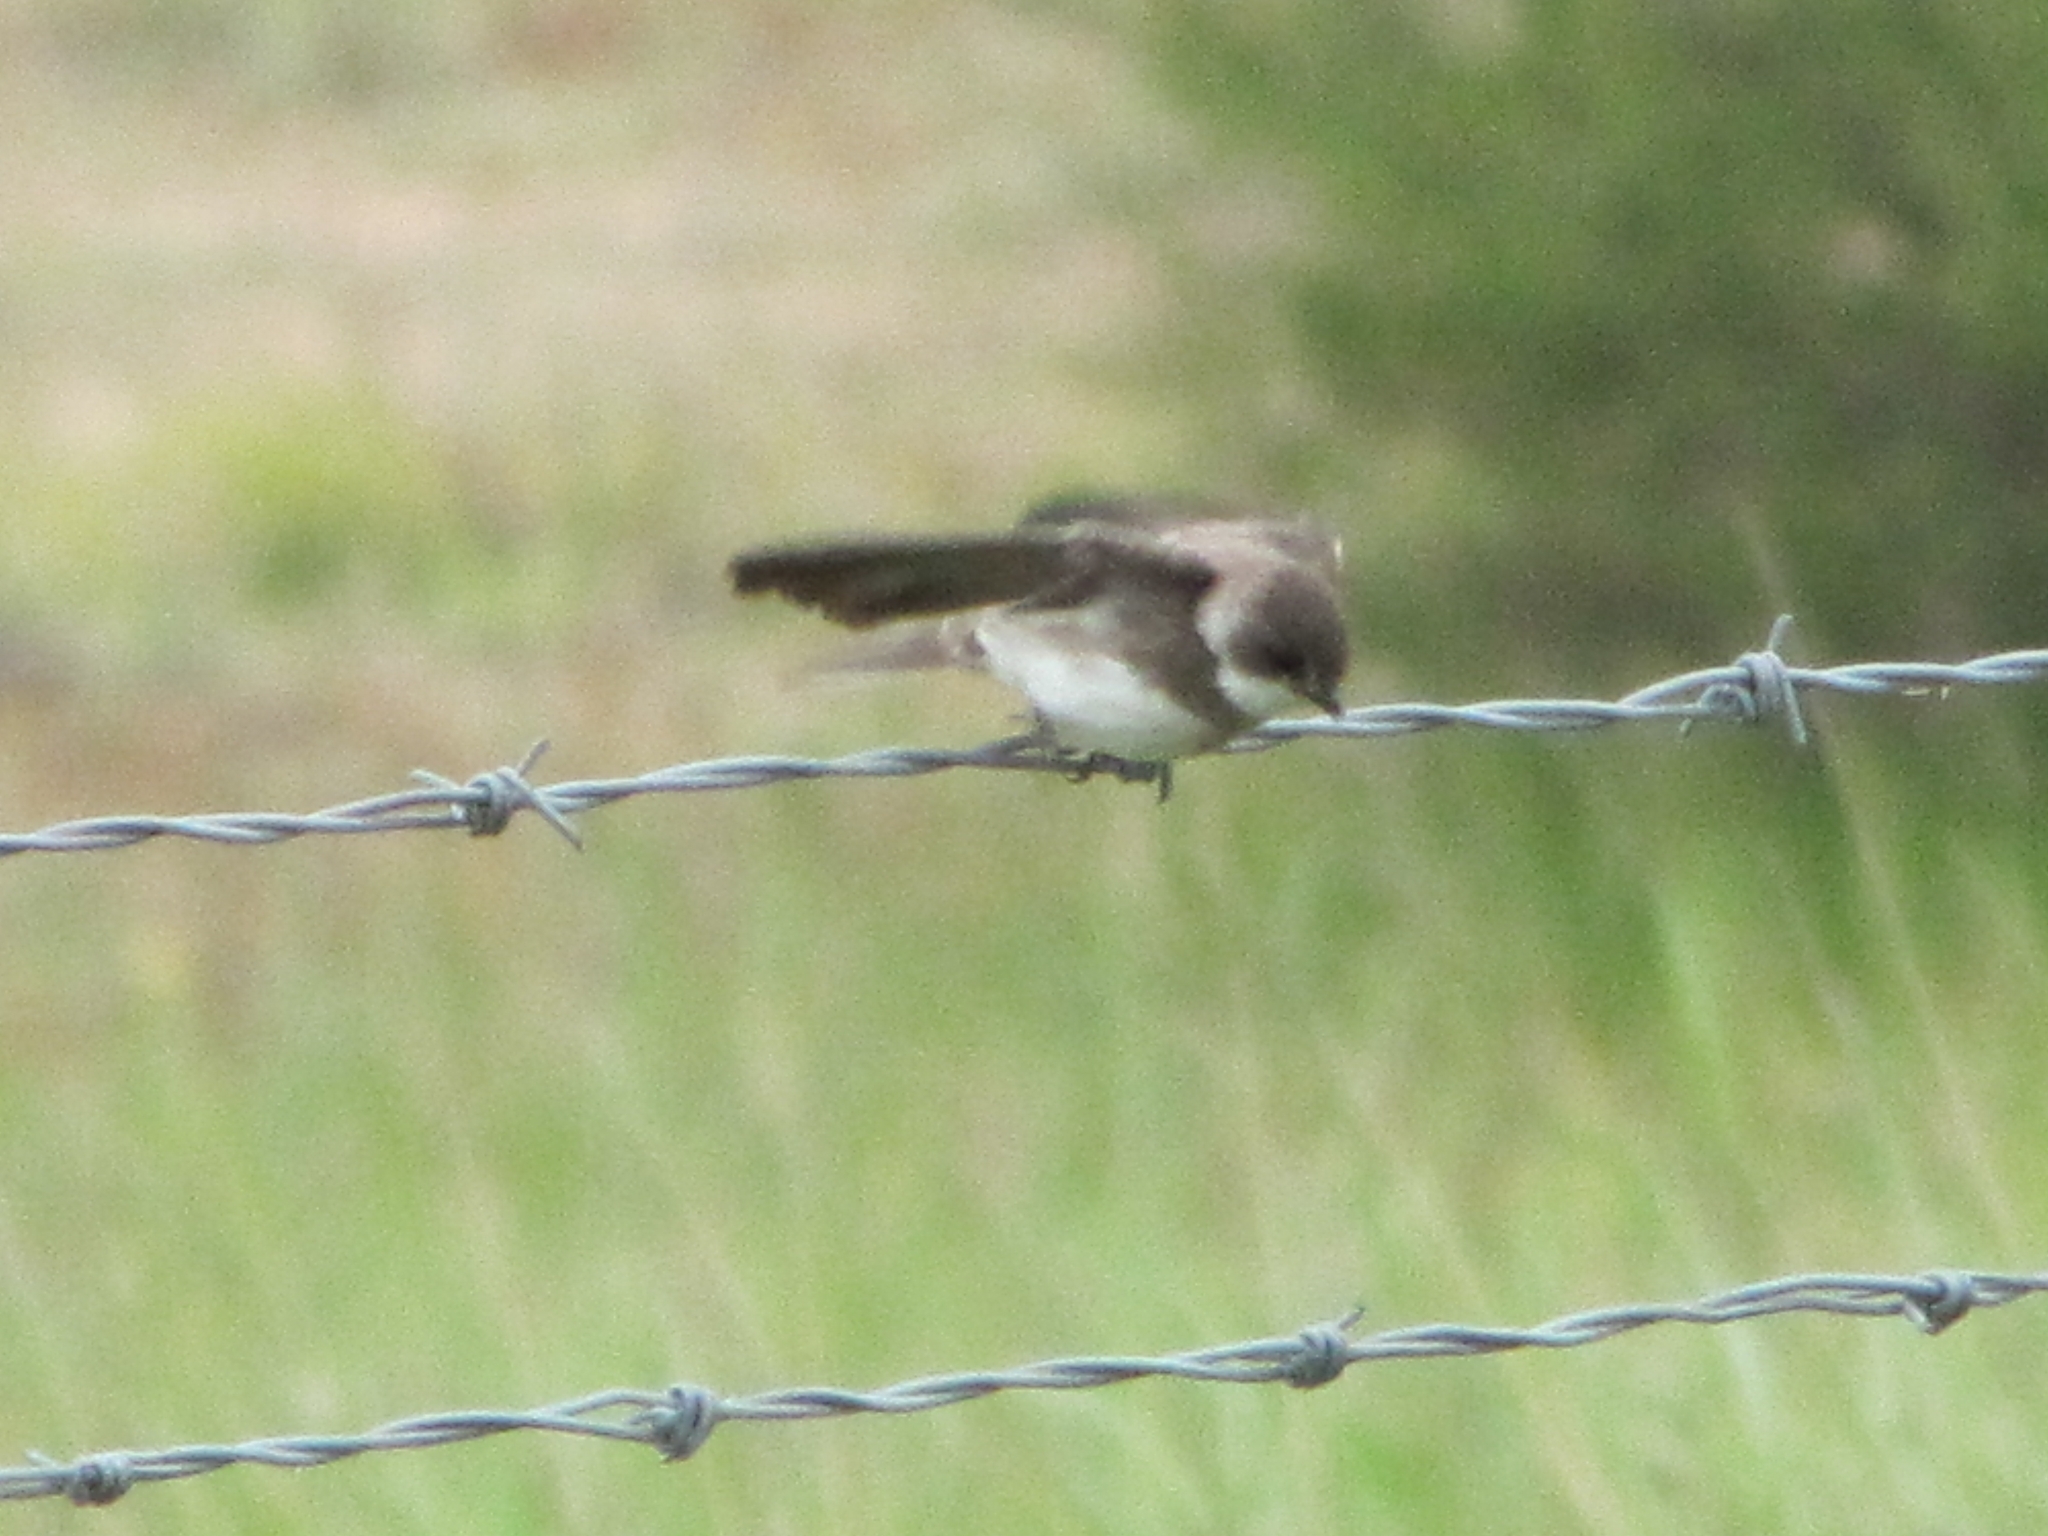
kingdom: Animalia
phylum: Chordata
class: Aves
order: Passeriformes
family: Hirundinidae
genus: Riparia
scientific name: Riparia riparia
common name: Sand martin
